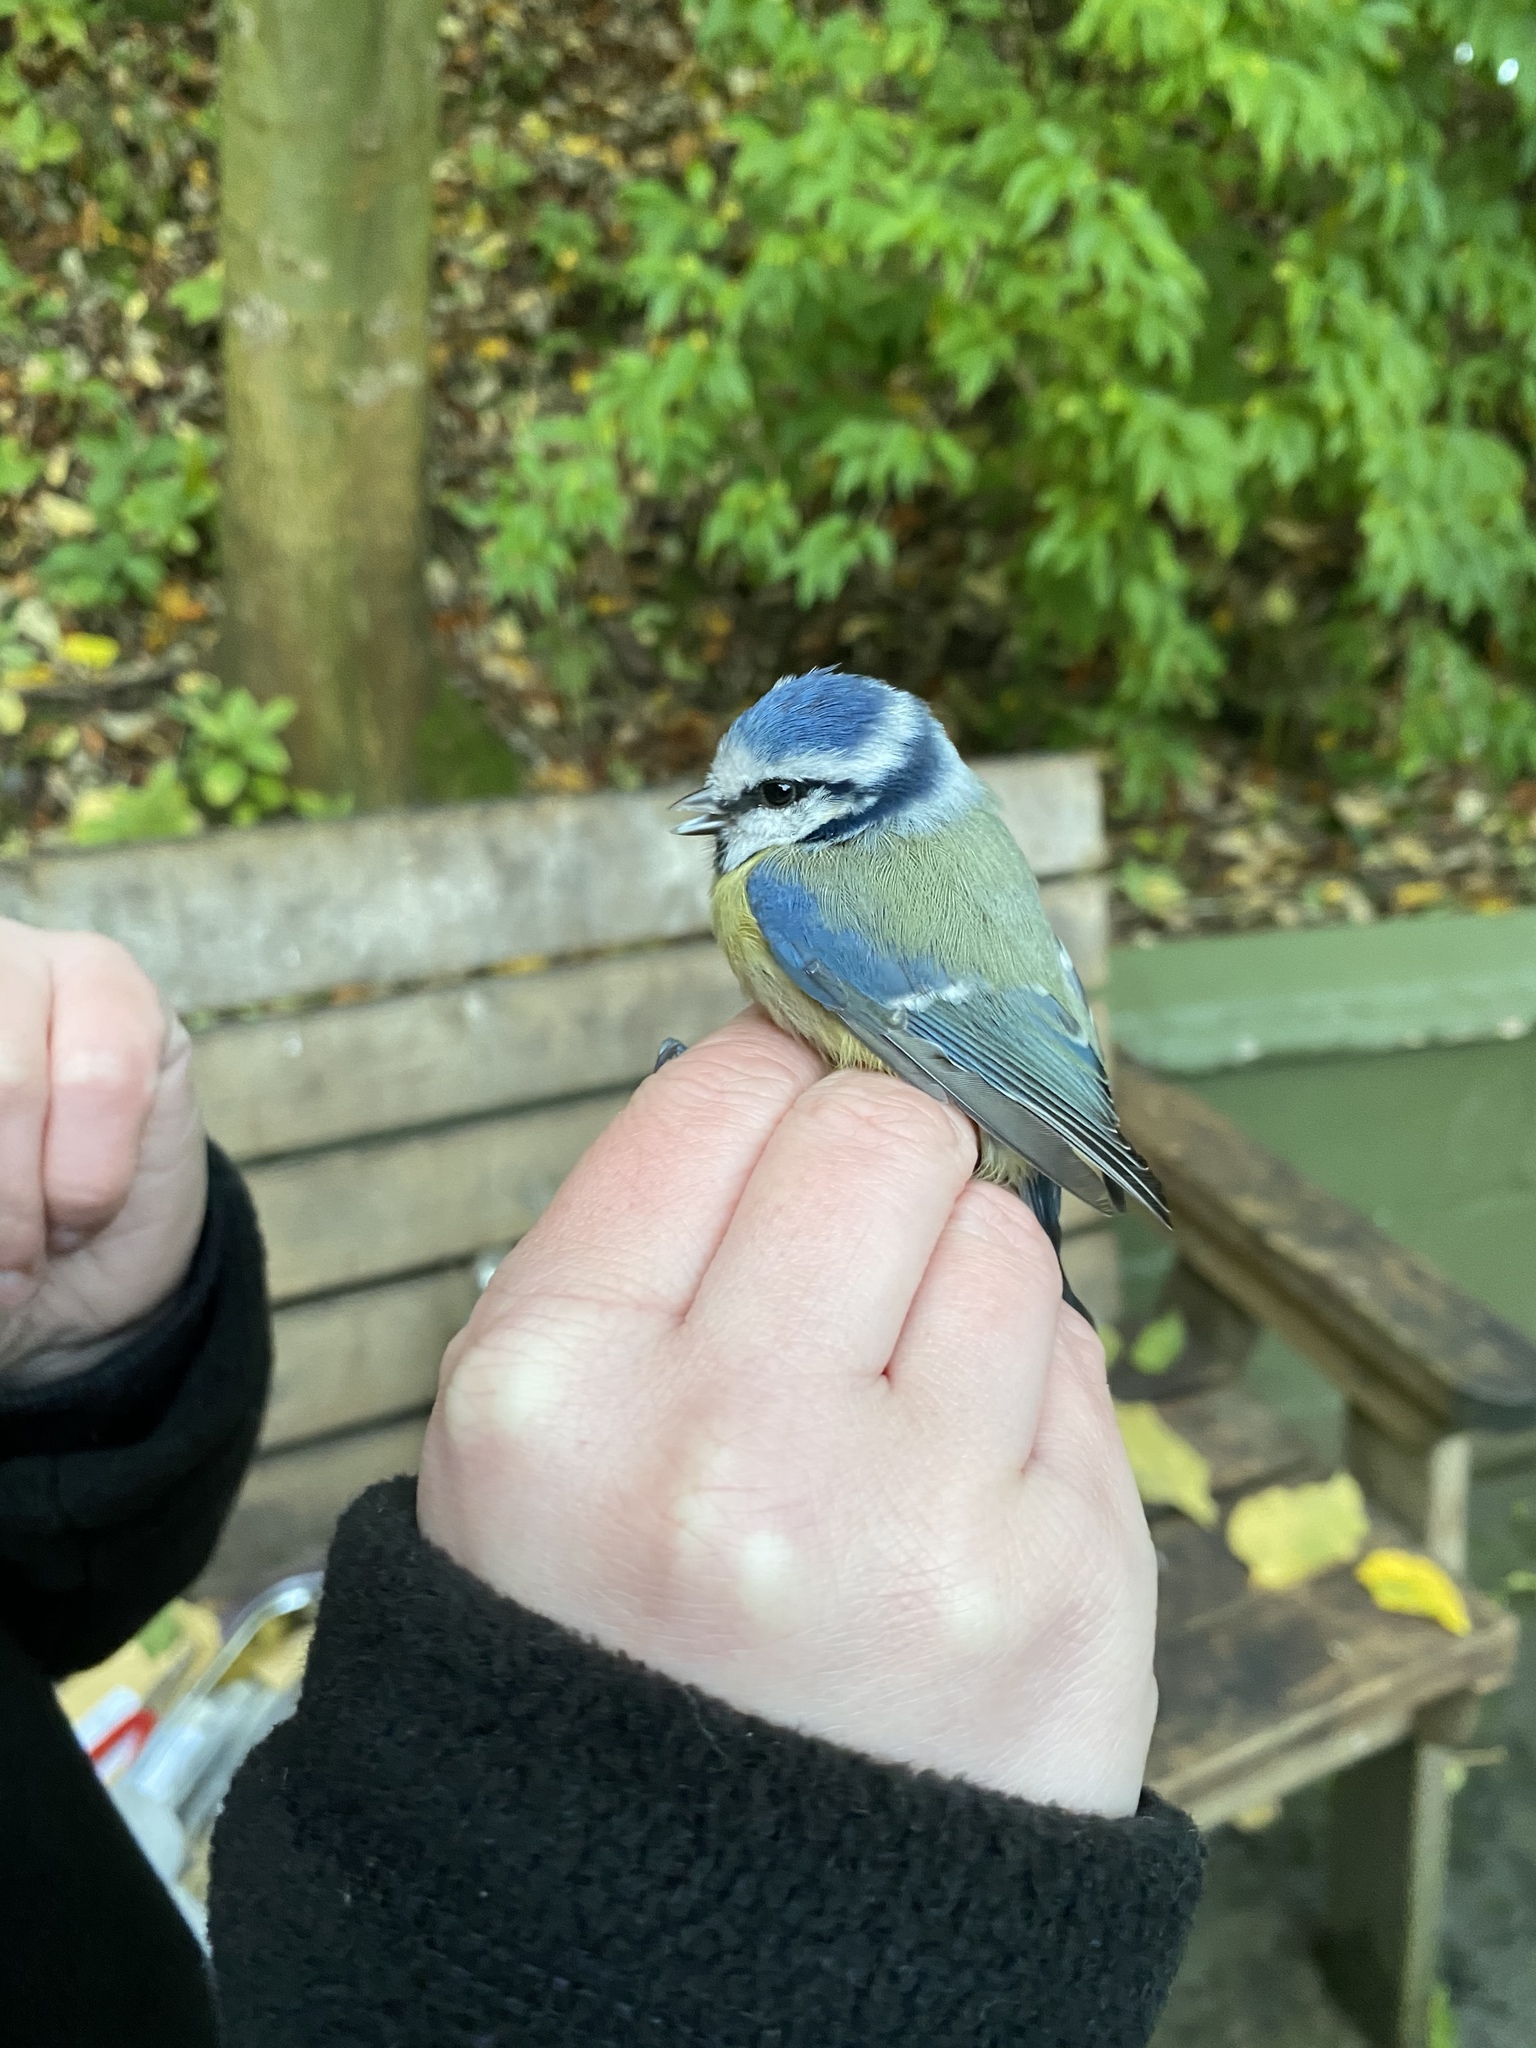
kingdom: Animalia
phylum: Chordata
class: Aves
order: Passeriformes
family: Paridae
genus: Cyanistes
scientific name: Cyanistes caeruleus
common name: Eurasian blue tit
